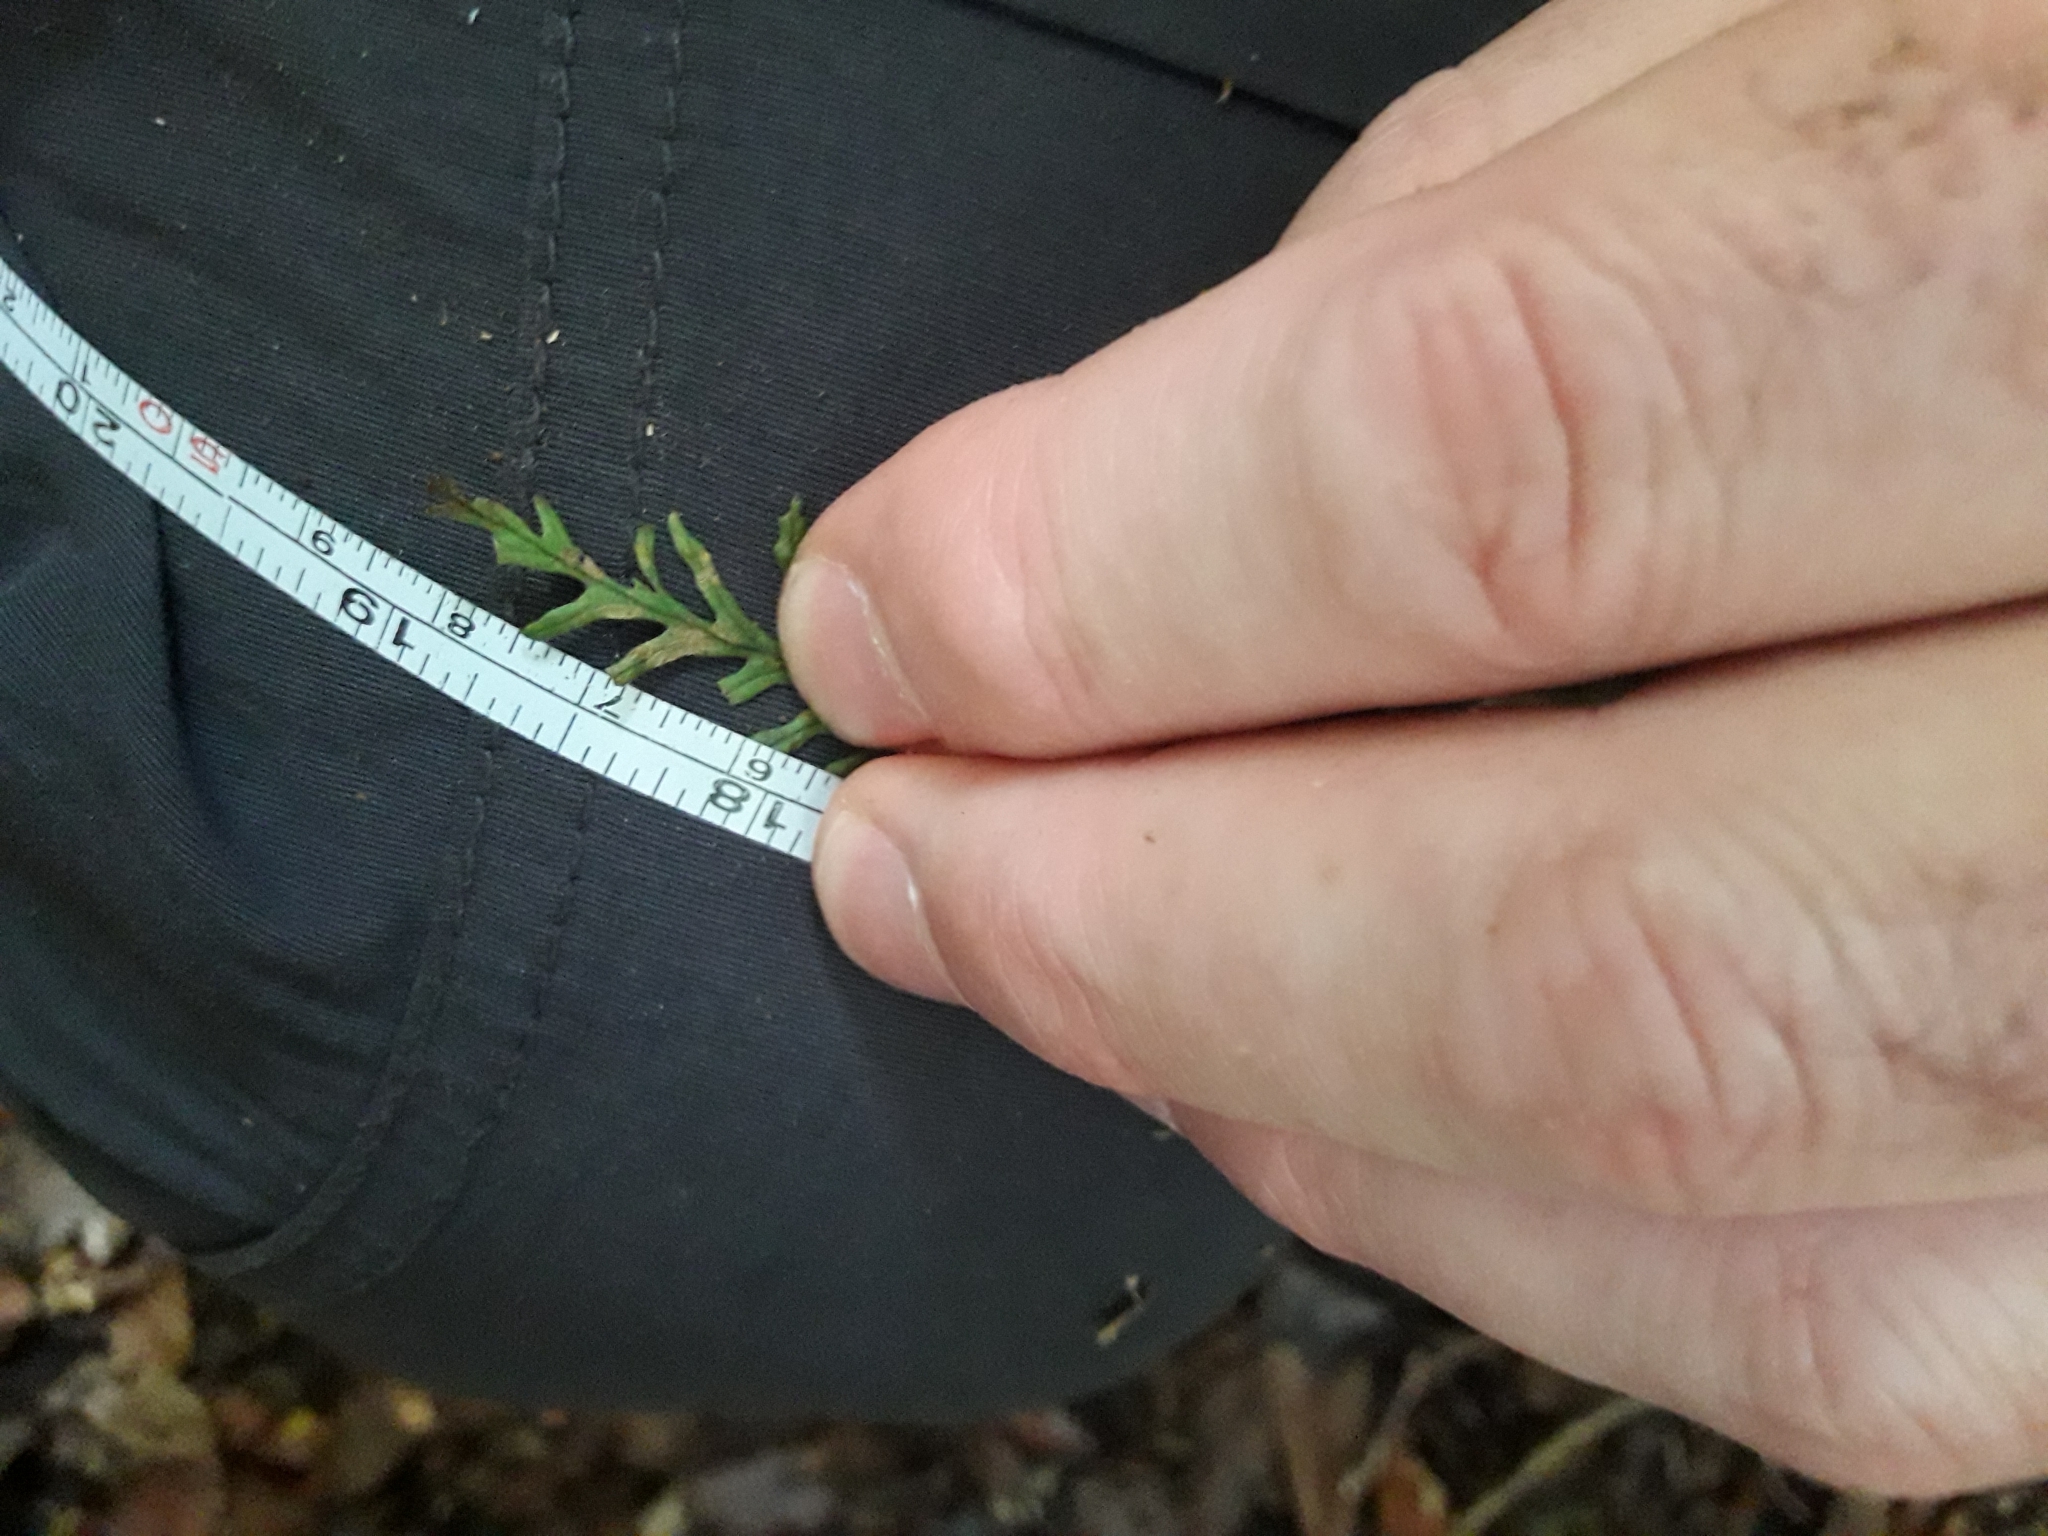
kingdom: Plantae
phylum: Tracheophyta
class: Polypodiopsida
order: Polypodiales
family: Polypodiaceae
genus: Notogrammitis
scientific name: Notogrammitis heterophylla
